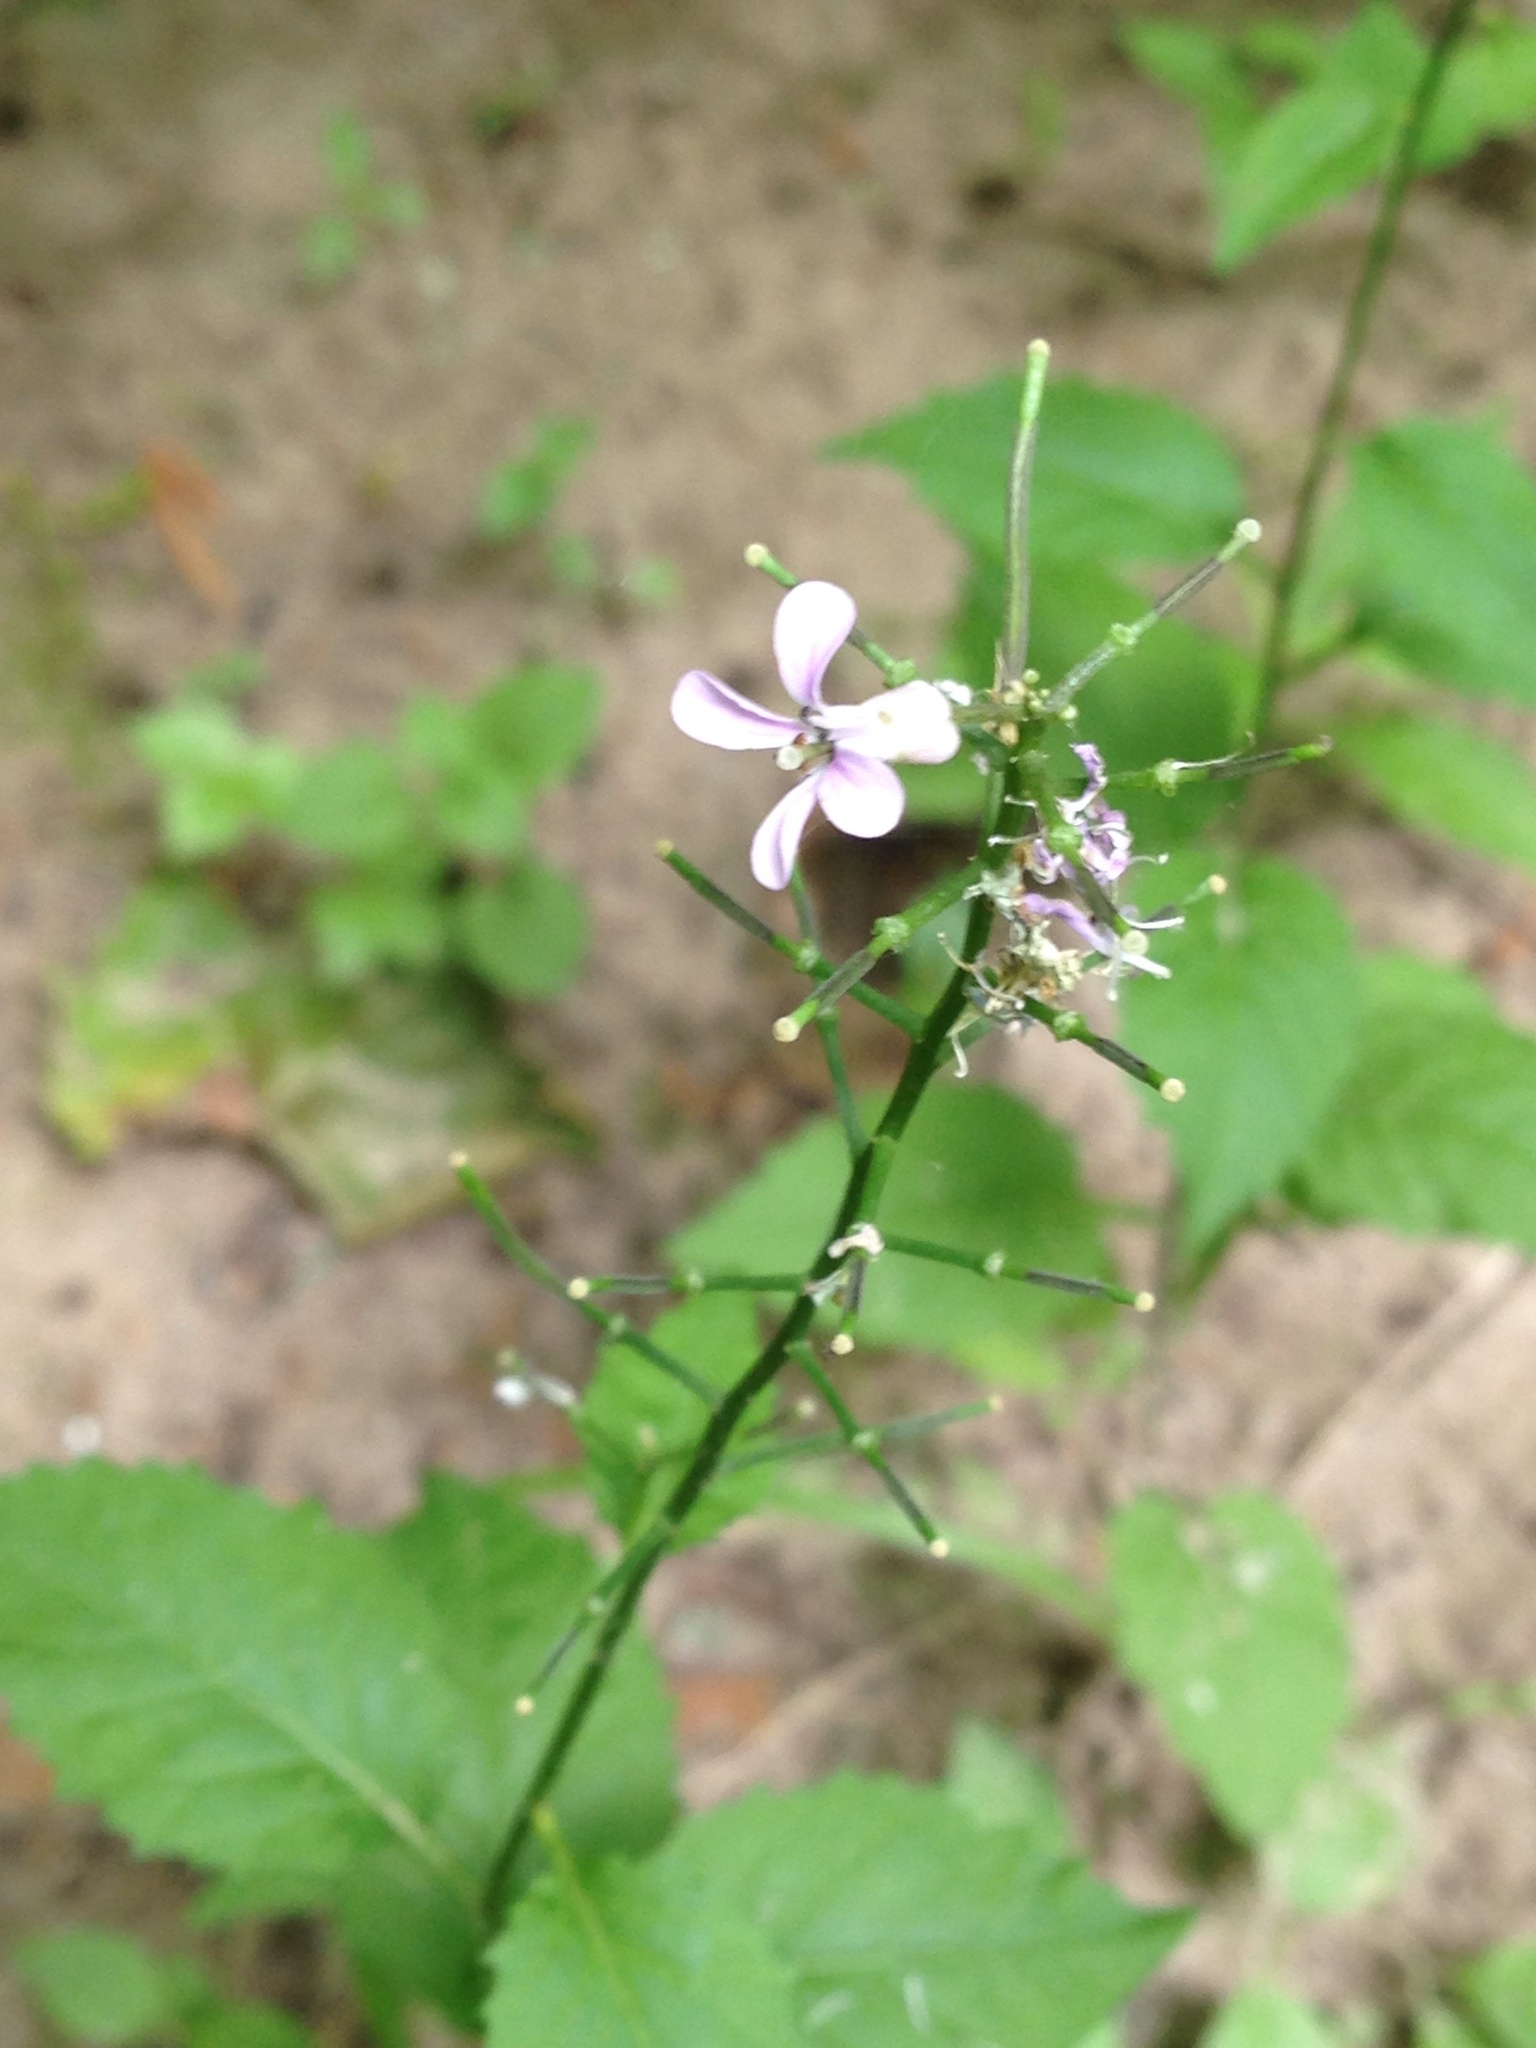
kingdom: Plantae
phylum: Tracheophyta
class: Magnoliopsida
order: Brassicales
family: Brassicaceae
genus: Iodanthus
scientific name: Iodanthus pinnatifidus
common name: Violet rocket
